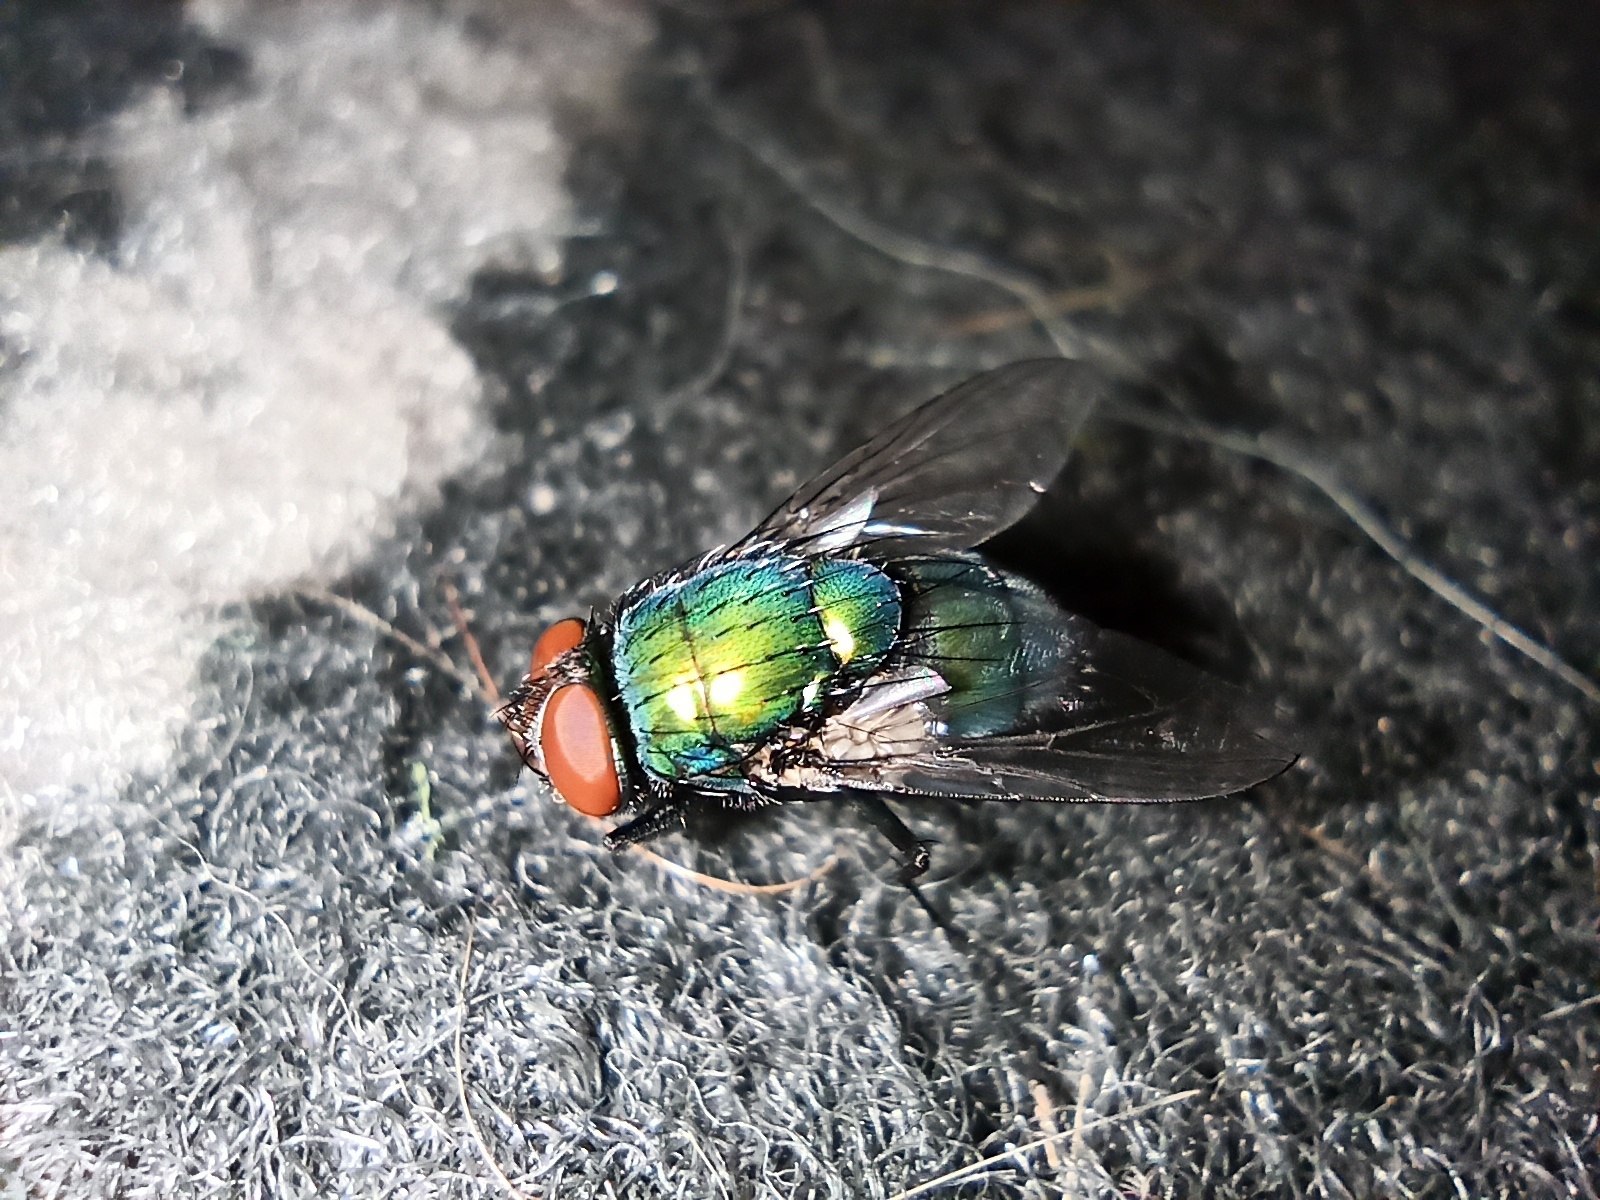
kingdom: Animalia
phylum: Arthropoda
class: Insecta
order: Diptera
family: Calliphoridae
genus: Lucilia
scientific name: Lucilia sericata
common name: Blow fly
